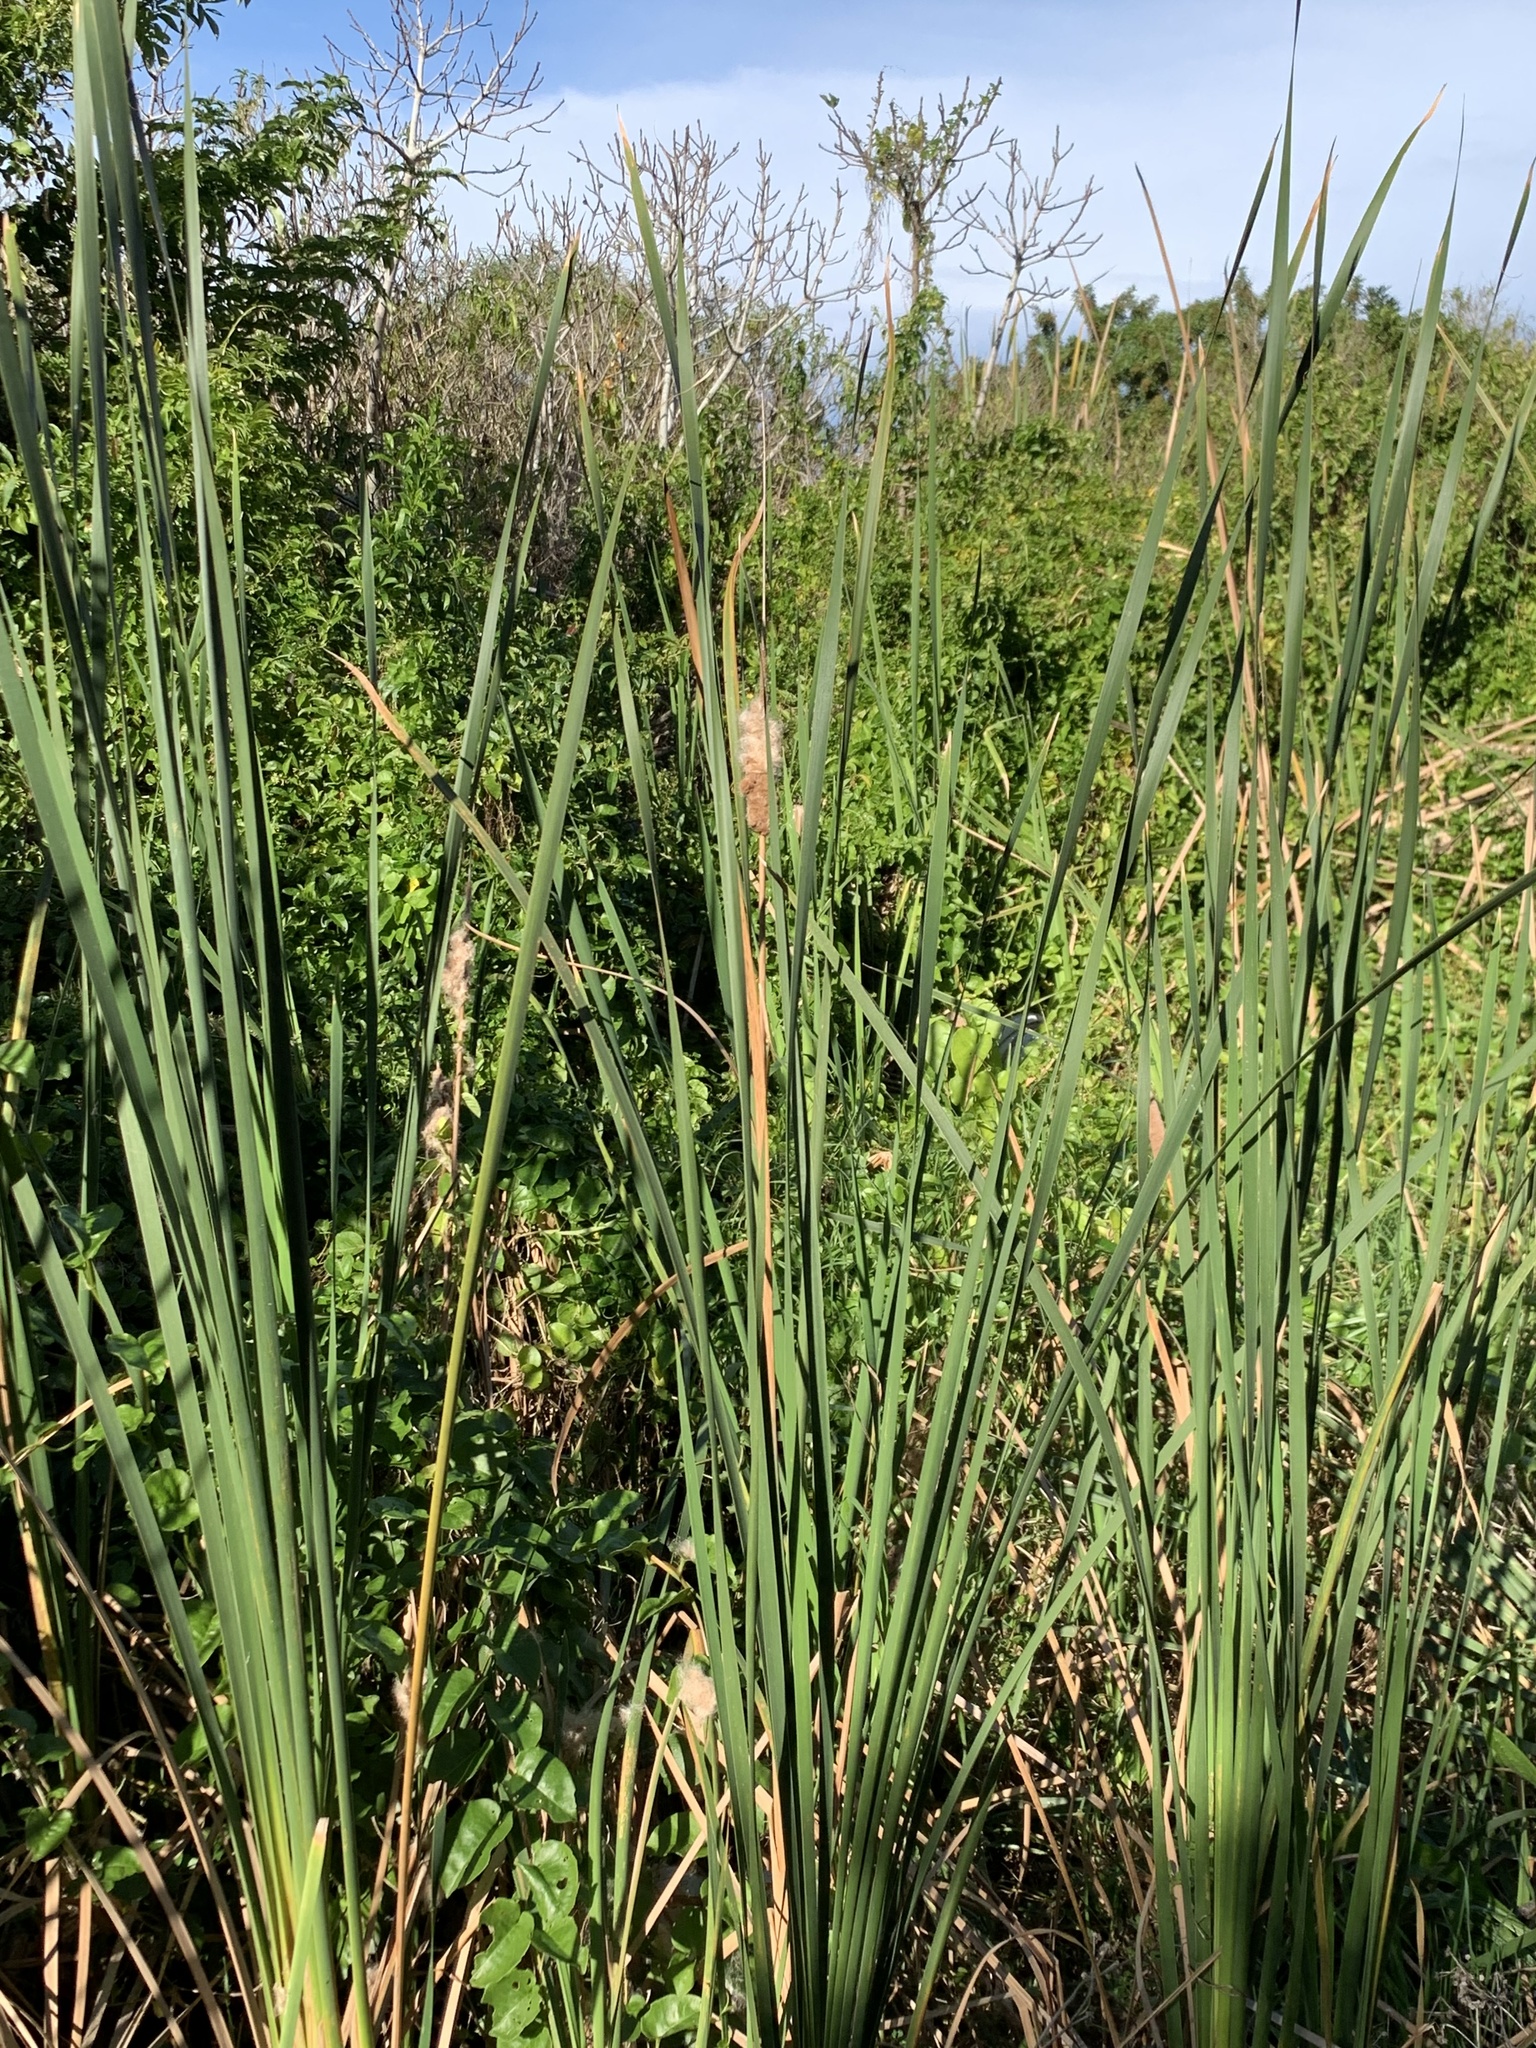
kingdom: Plantae
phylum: Tracheophyta
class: Liliopsida
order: Poales
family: Typhaceae
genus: Typha
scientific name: Typha capensis
